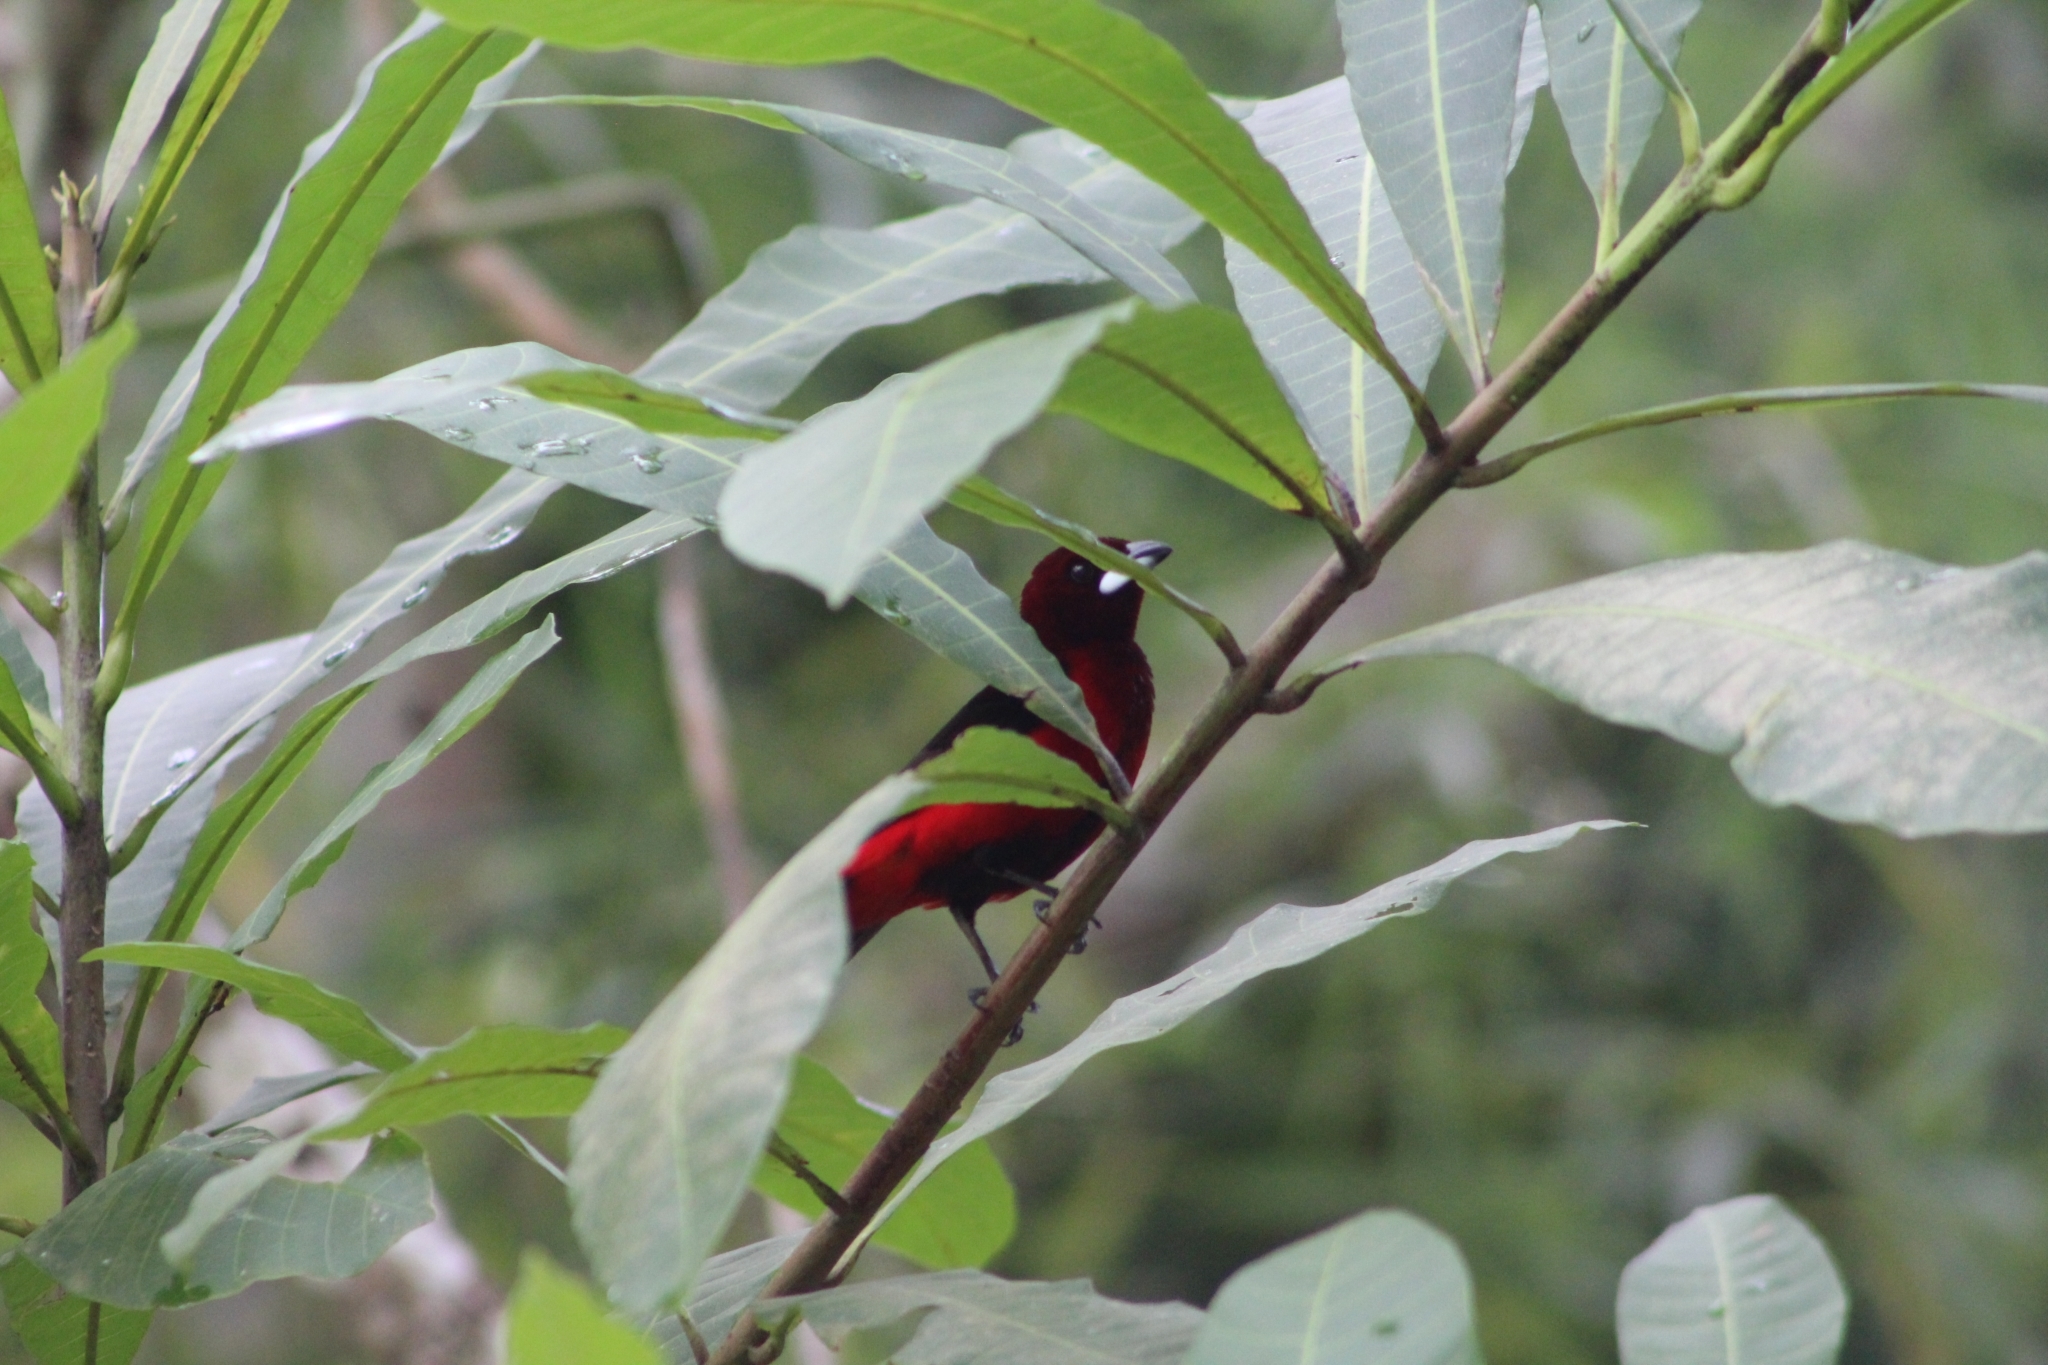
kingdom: Animalia
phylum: Chordata
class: Aves
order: Passeriformes
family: Thraupidae
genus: Ramphocelus
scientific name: Ramphocelus dimidiatus
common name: Crimson-backed tanager
